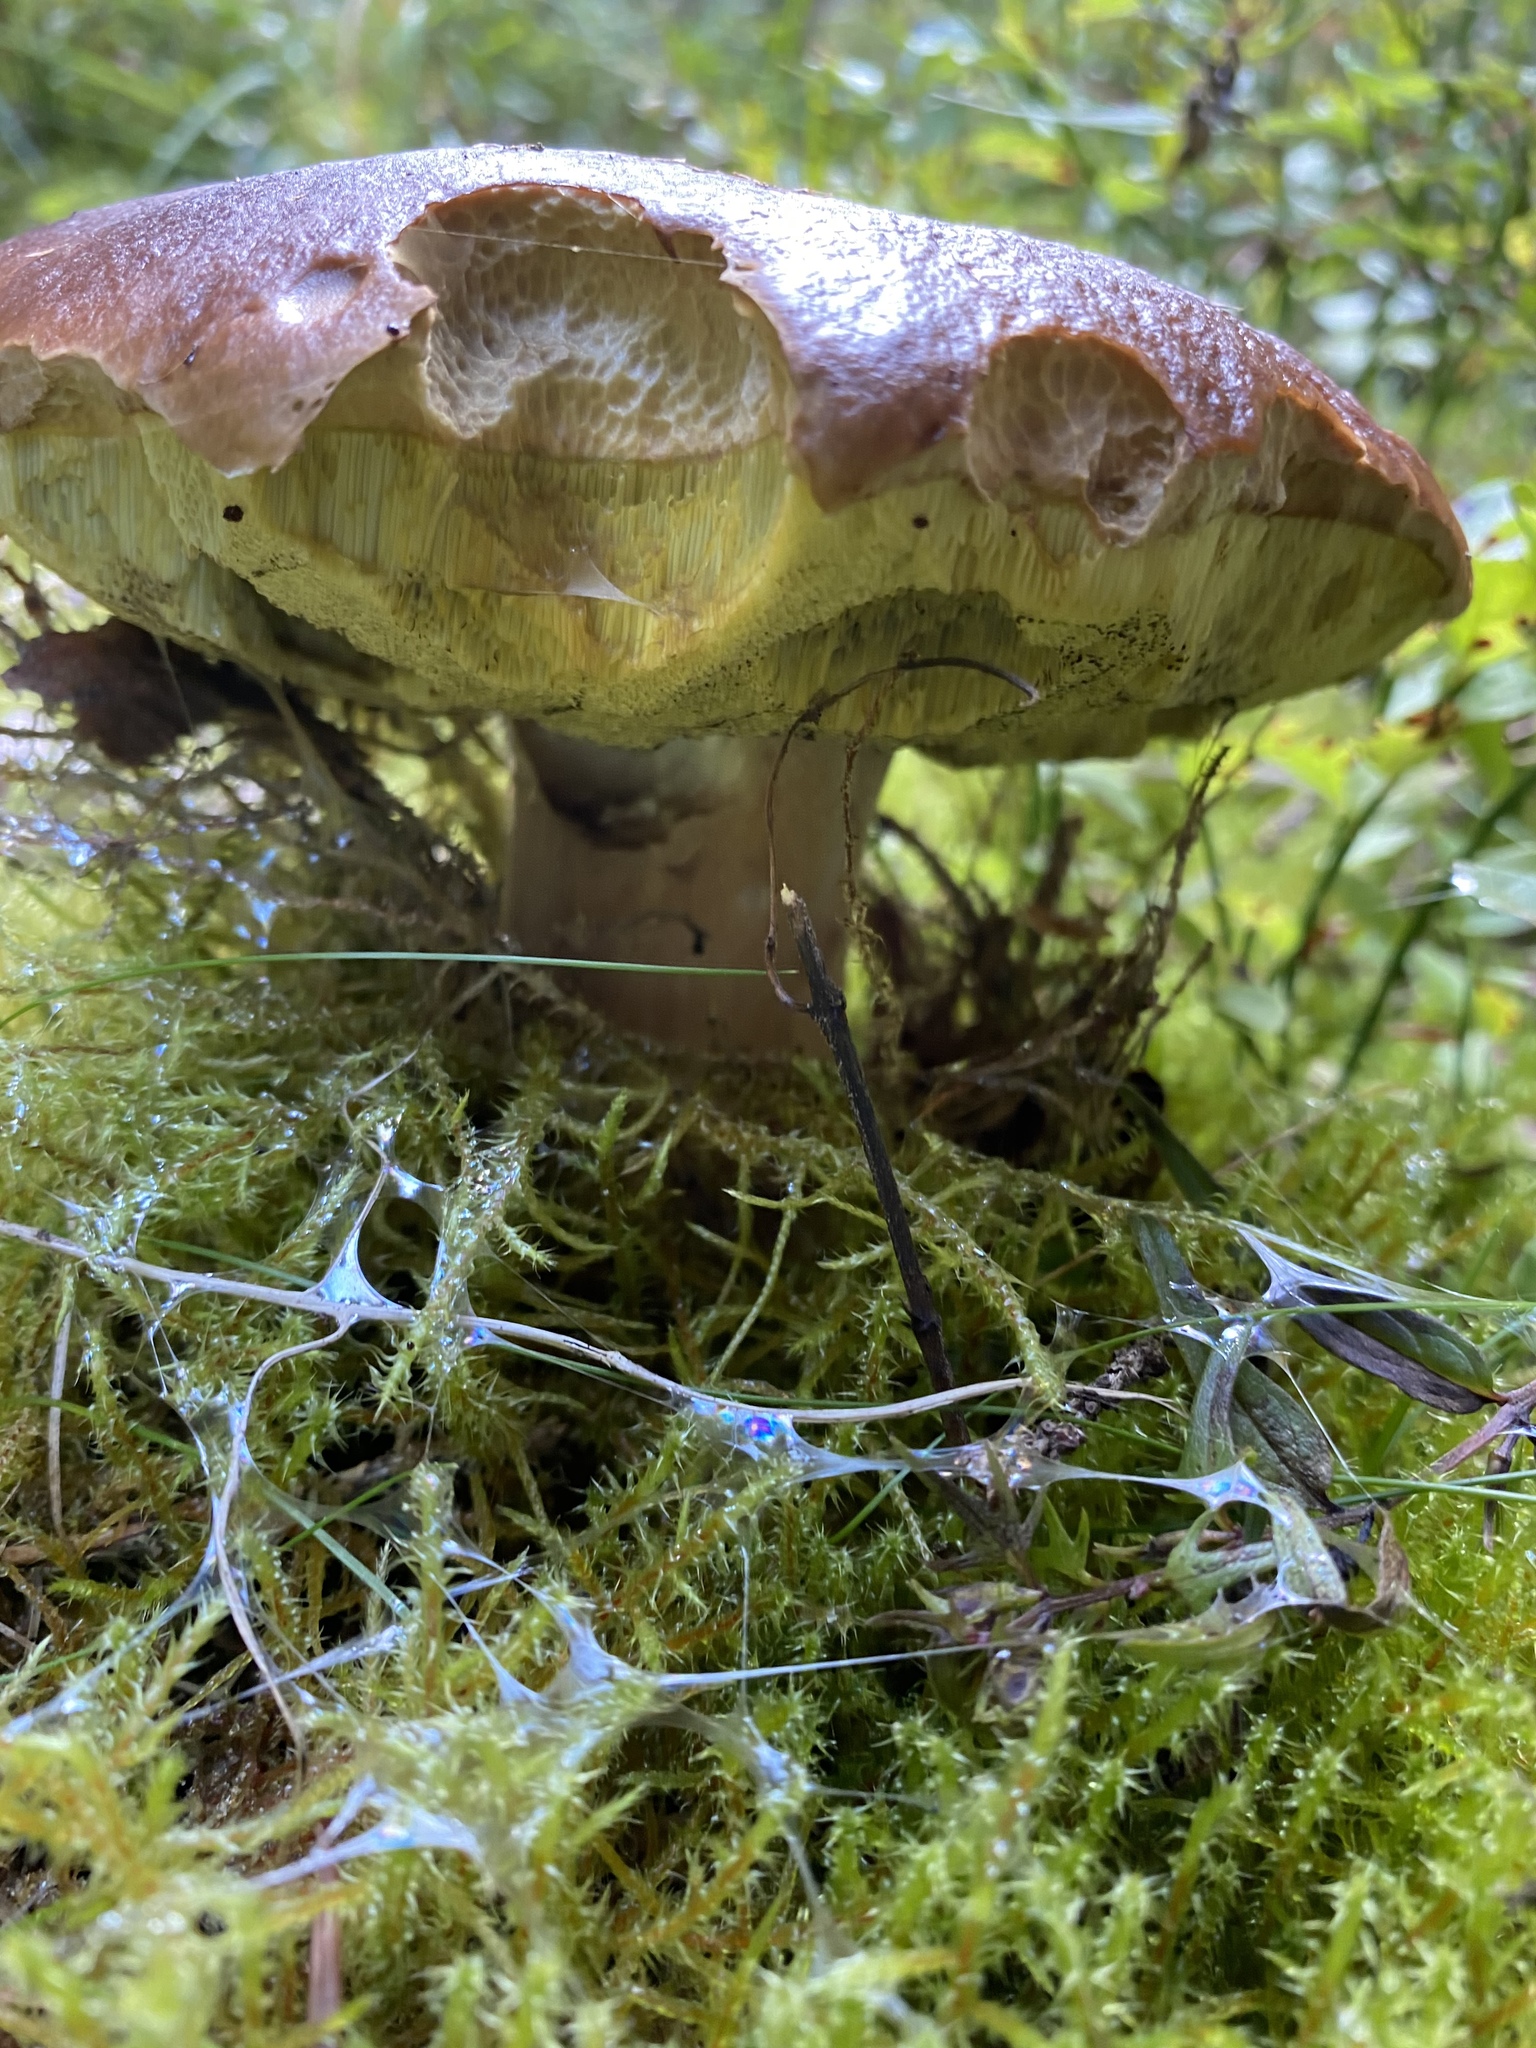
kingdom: Fungi
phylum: Basidiomycota
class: Agaricomycetes
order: Boletales
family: Boletaceae
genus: Boletus
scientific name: Boletus edulis
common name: Cep
